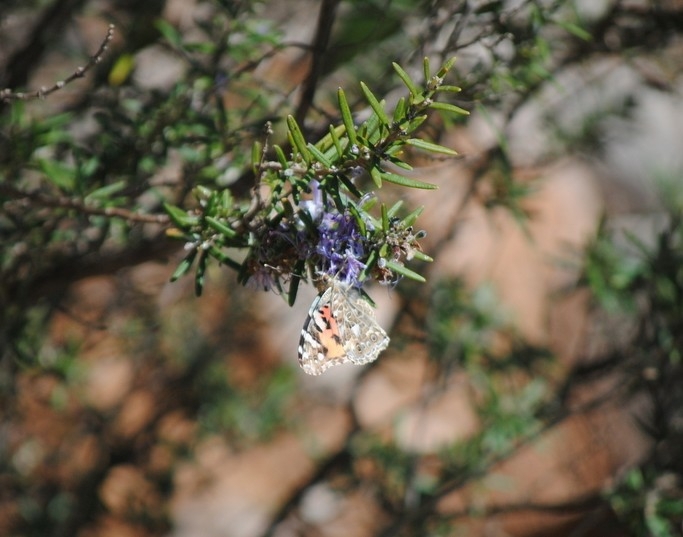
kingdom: Animalia
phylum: Arthropoda
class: Insecta
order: Lepidoptera
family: Nymphalidae
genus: Vanessa
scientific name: Vanessa cardui
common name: Painted lady
